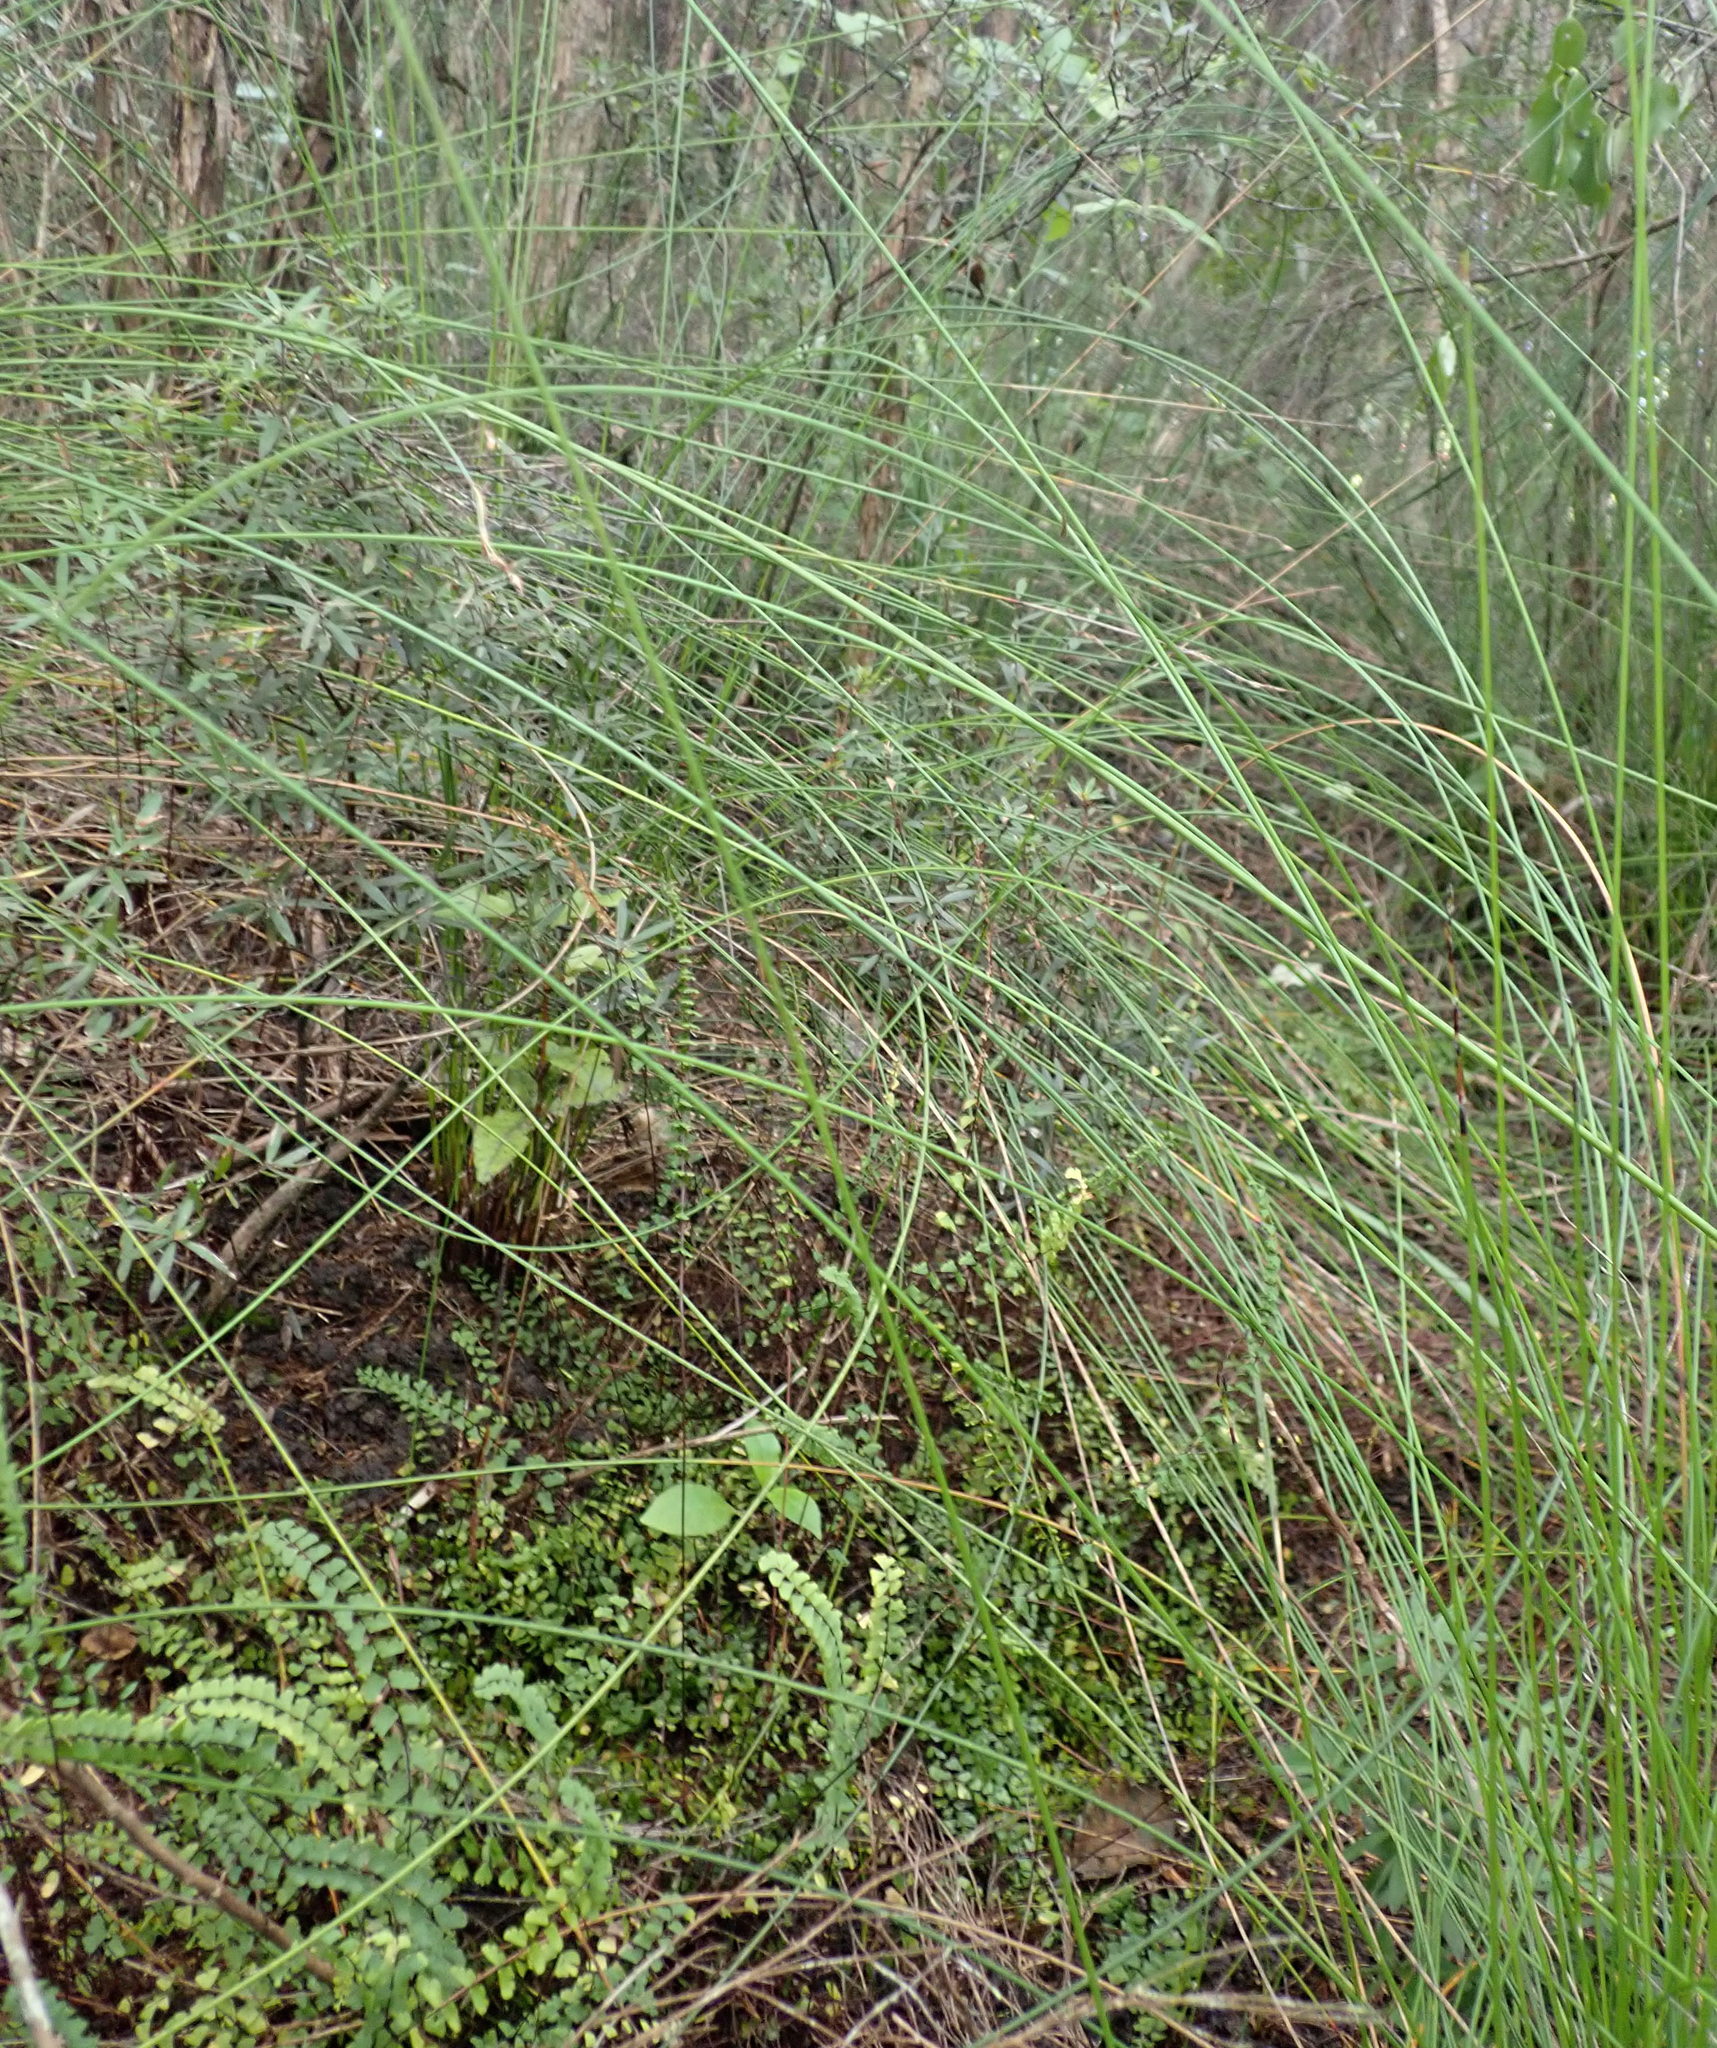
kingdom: Plantae
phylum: Tracheophyta
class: Polypodiopsida
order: Polypodiales
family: Lindsaeaceae
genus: Lindsaea
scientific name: Lindsaea linearis
